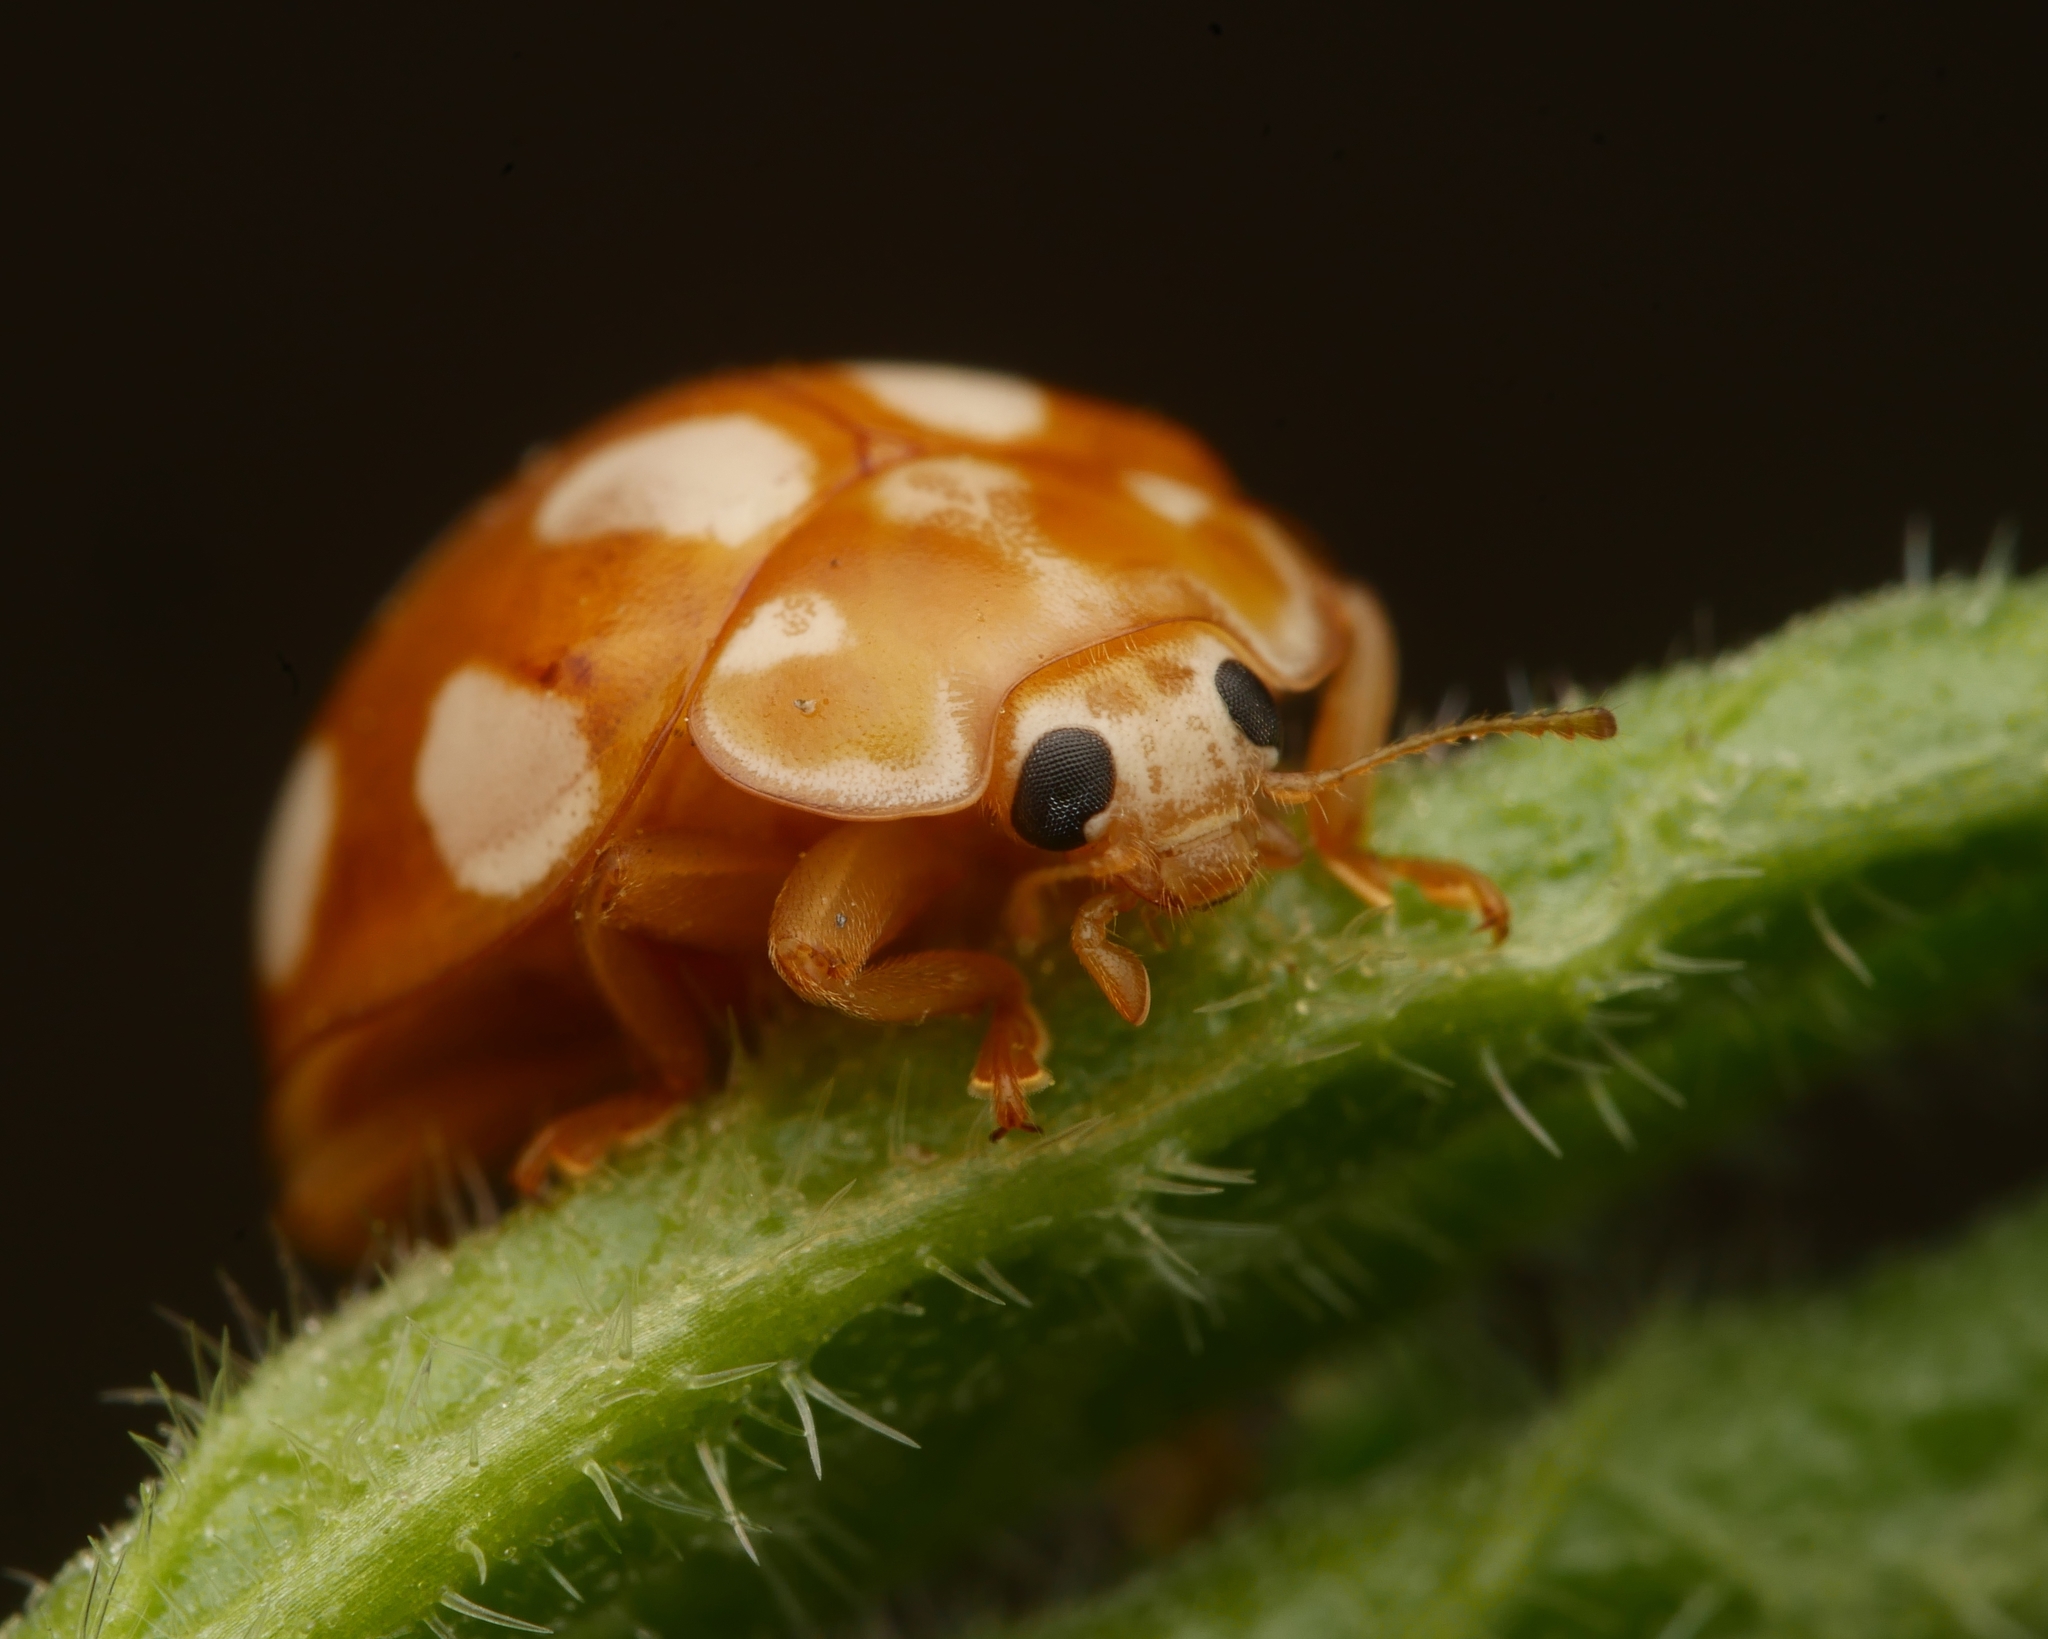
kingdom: Animalia
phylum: Arthropoda
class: Insecta
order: Coleoptera
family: Coccinellidae
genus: Calvia
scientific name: Calvia decemguttata
